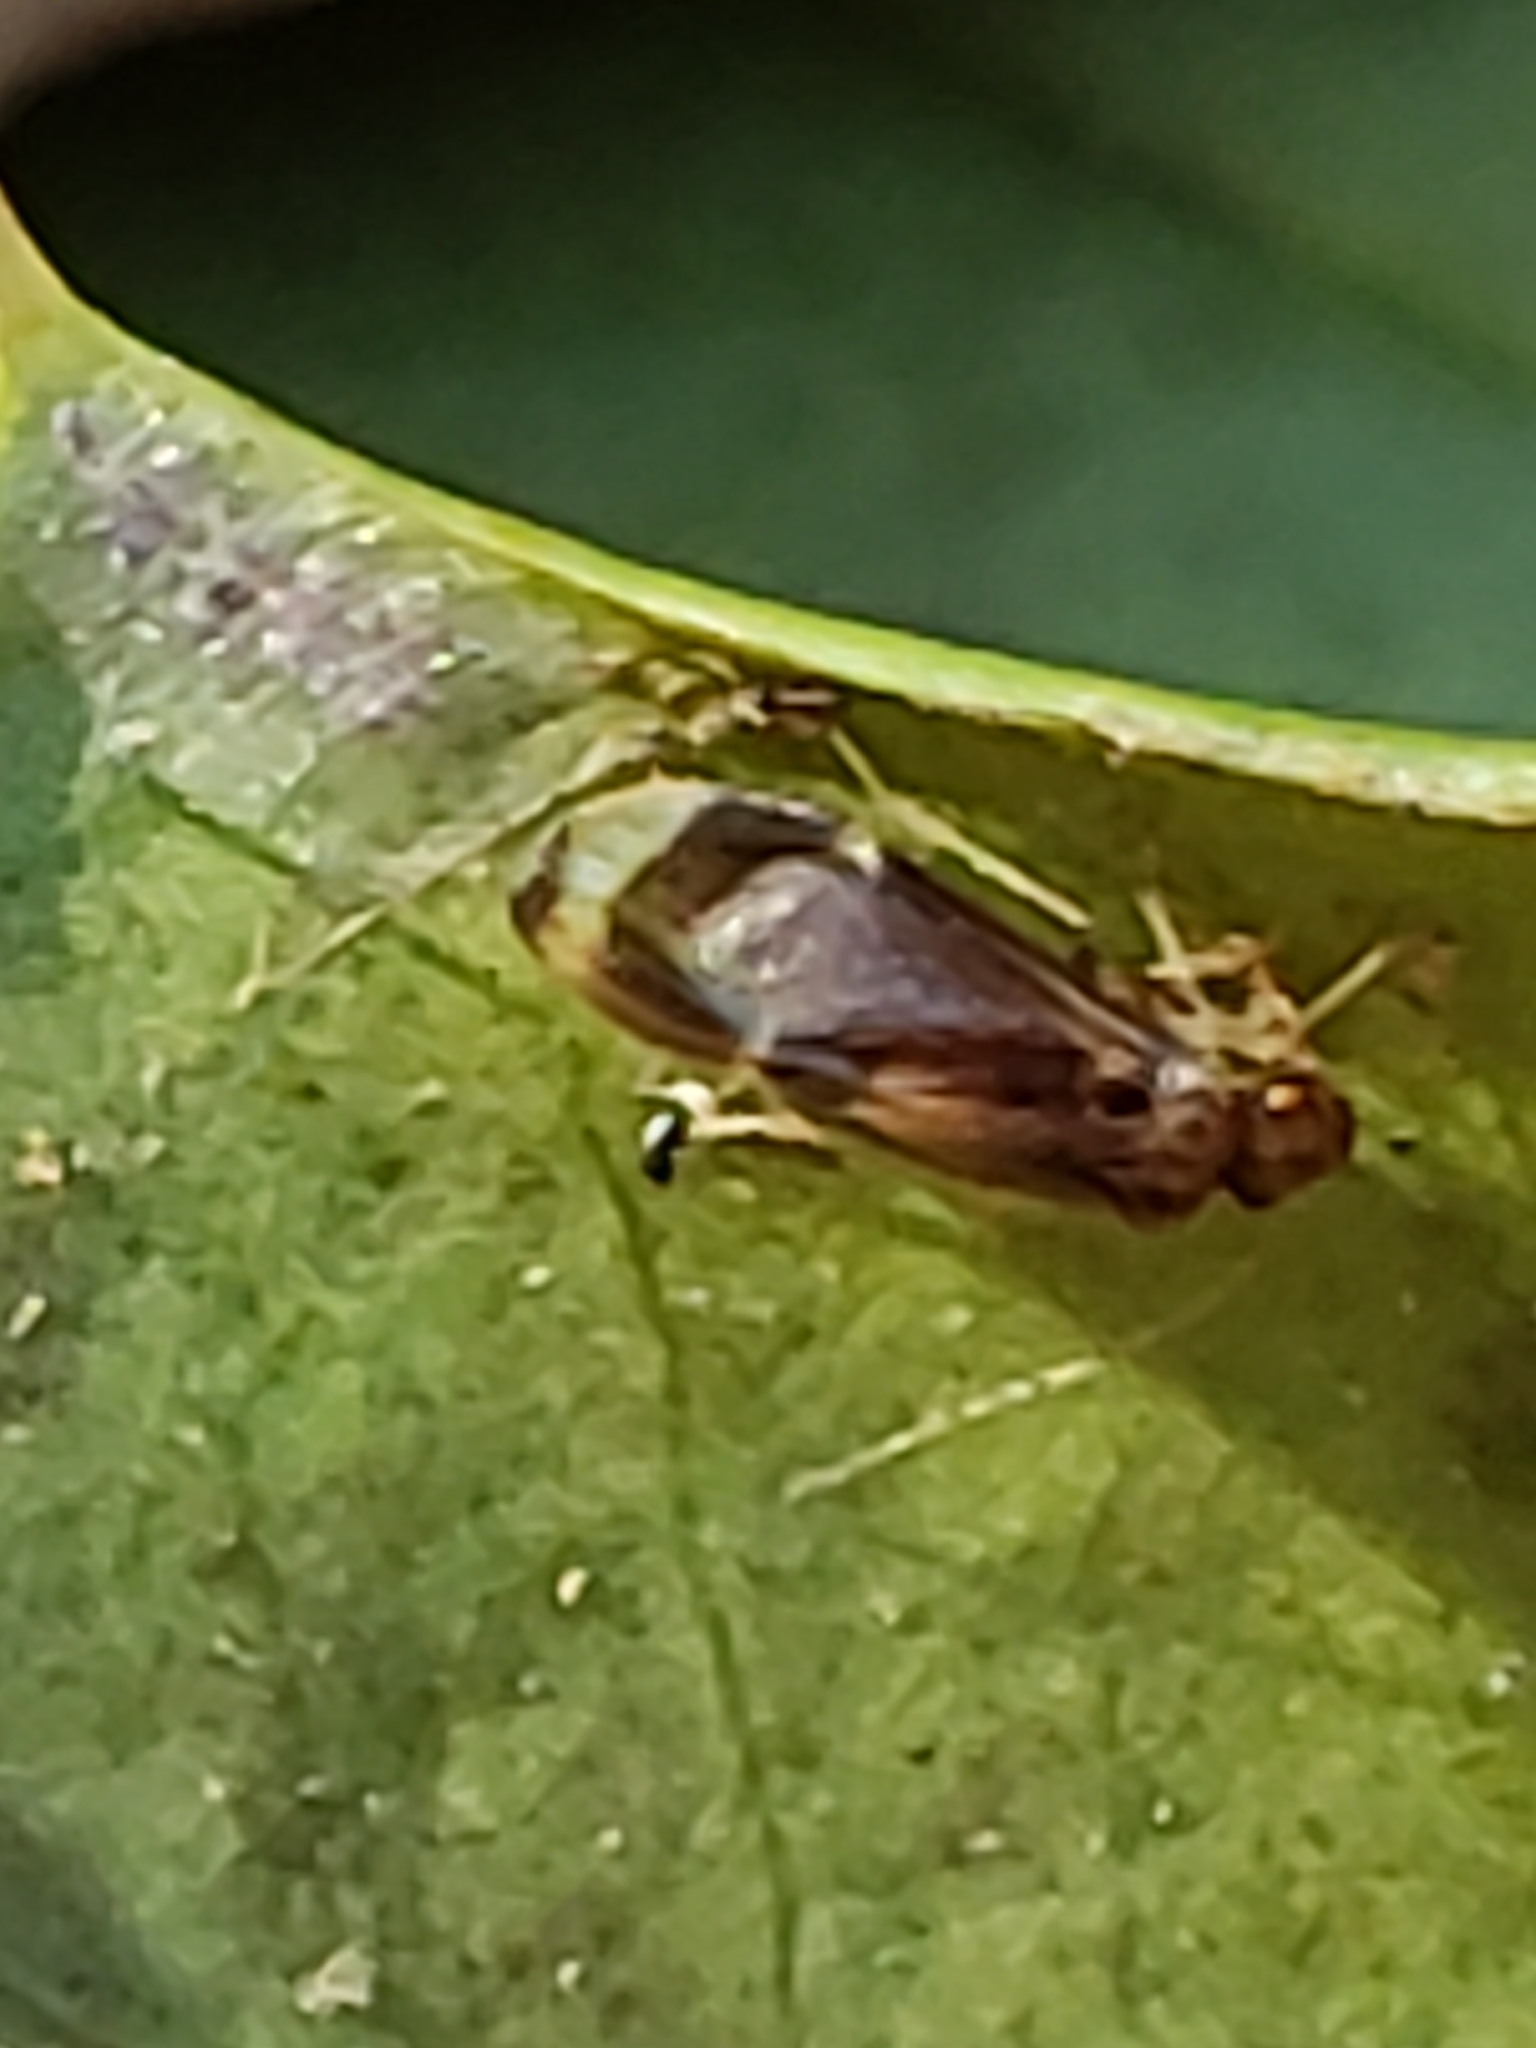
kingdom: Animalia
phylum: Arthropoda
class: Insecta
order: Psocodea
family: Amphipsocidae
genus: Polypsocus
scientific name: Polypsocus corruptus
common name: Corrupt barklouse
